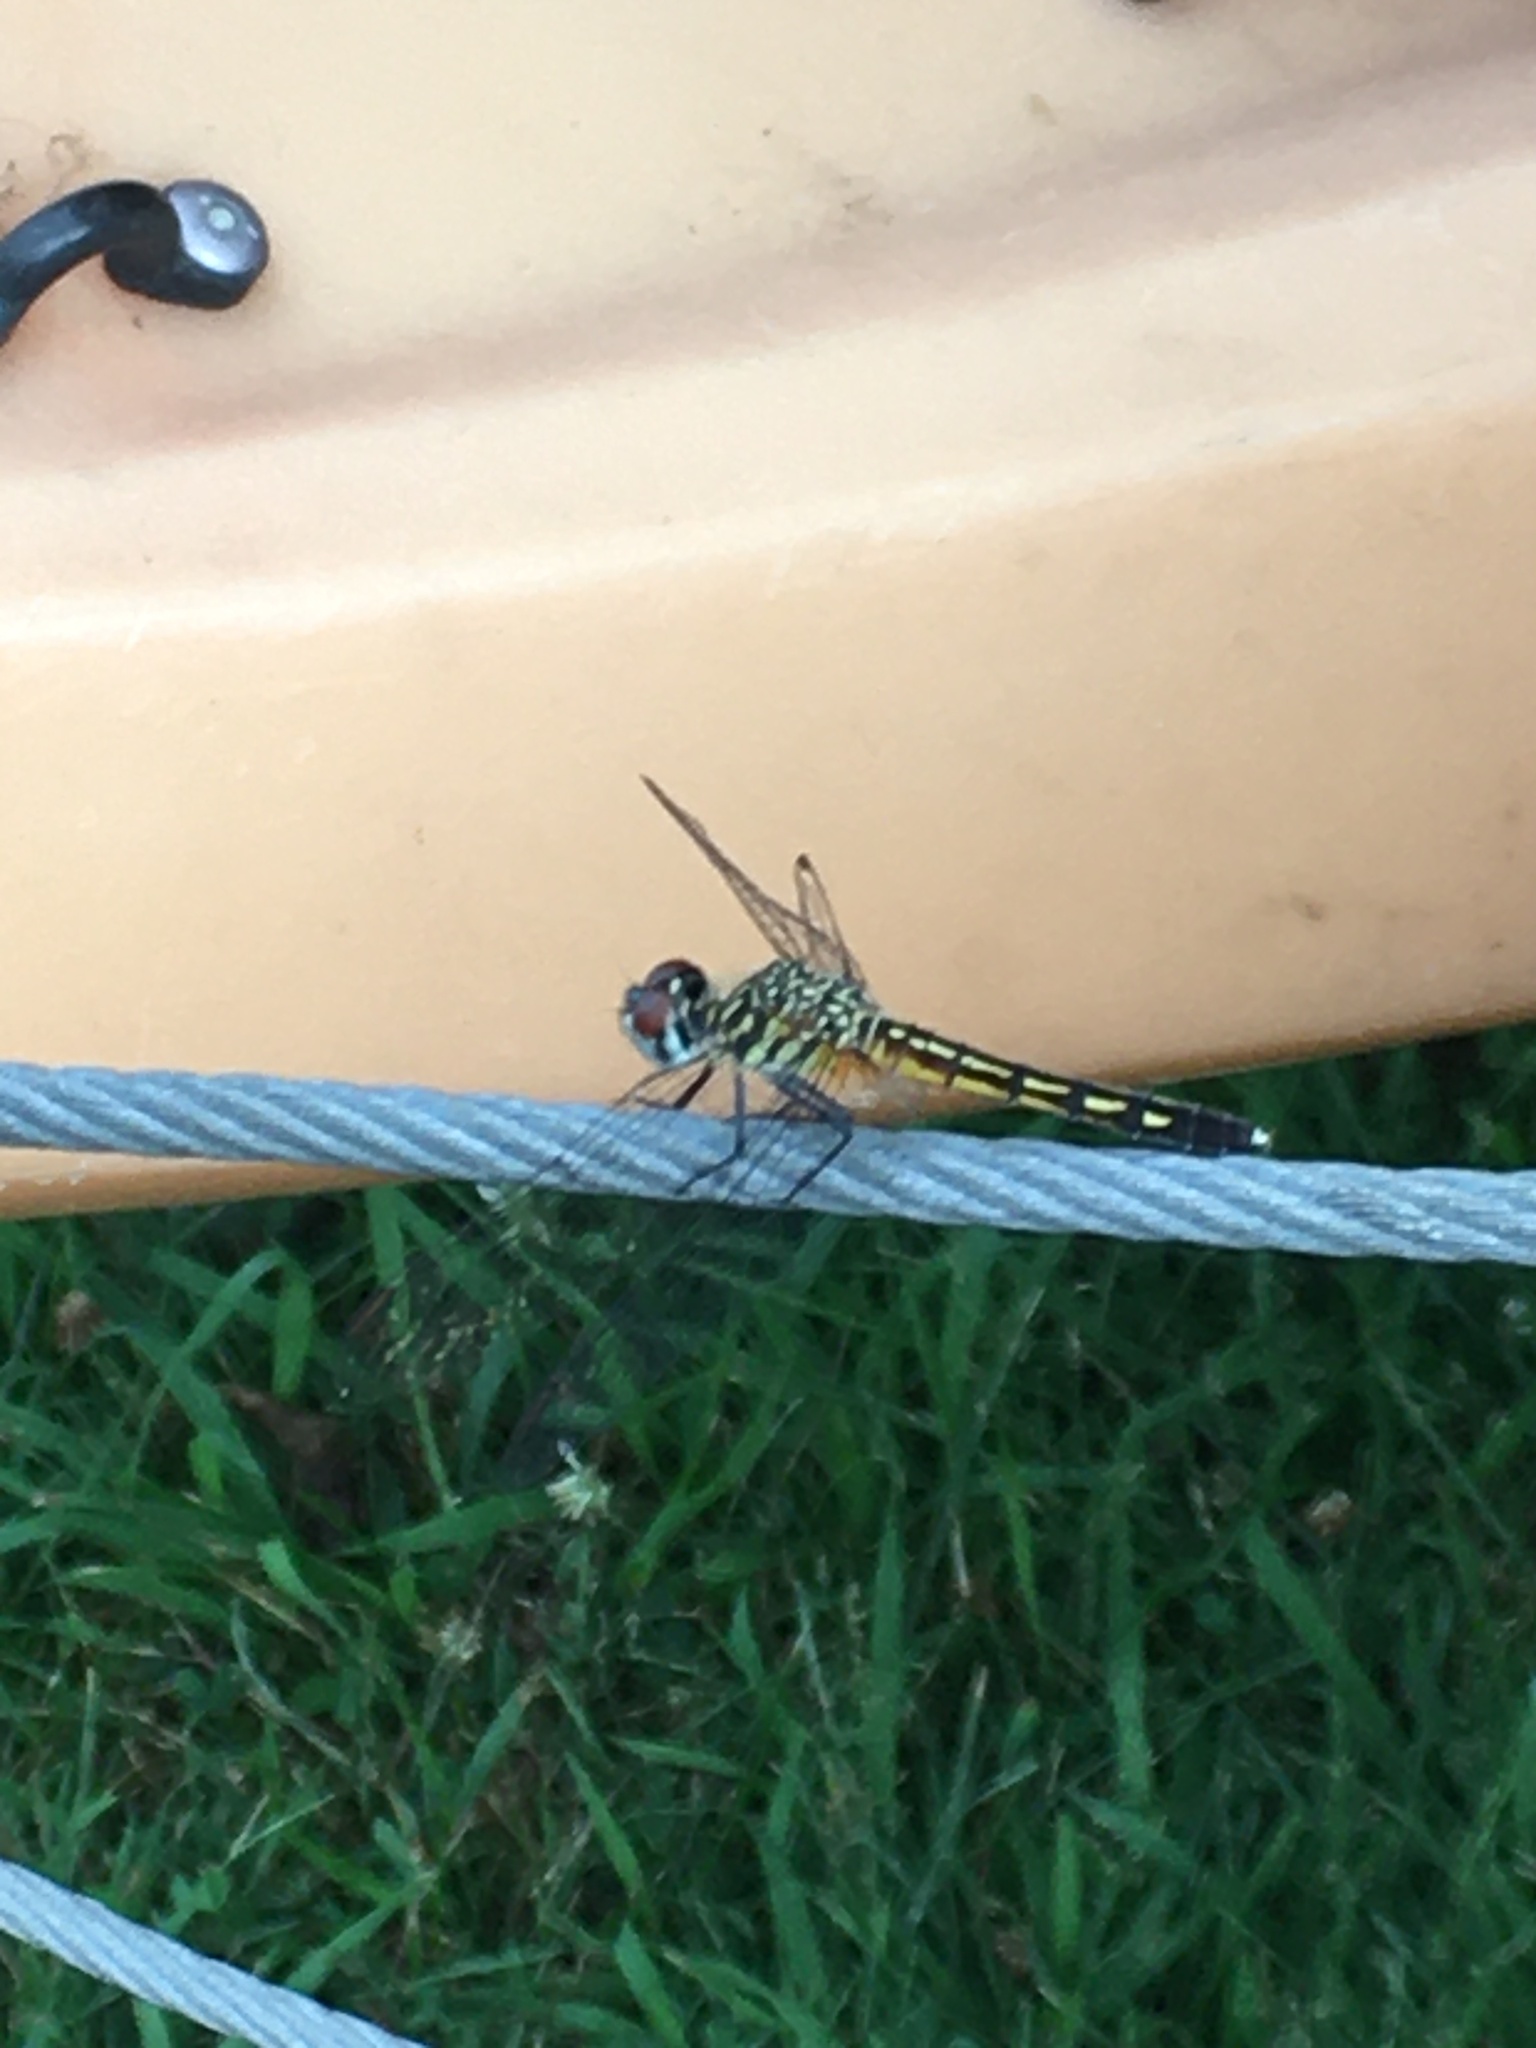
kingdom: Animalia
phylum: Arthropoda
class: Insecta
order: Odonata
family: Libellulidae
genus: Pachydiplax
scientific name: Pachydiplax longipennis
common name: Blue dasher
